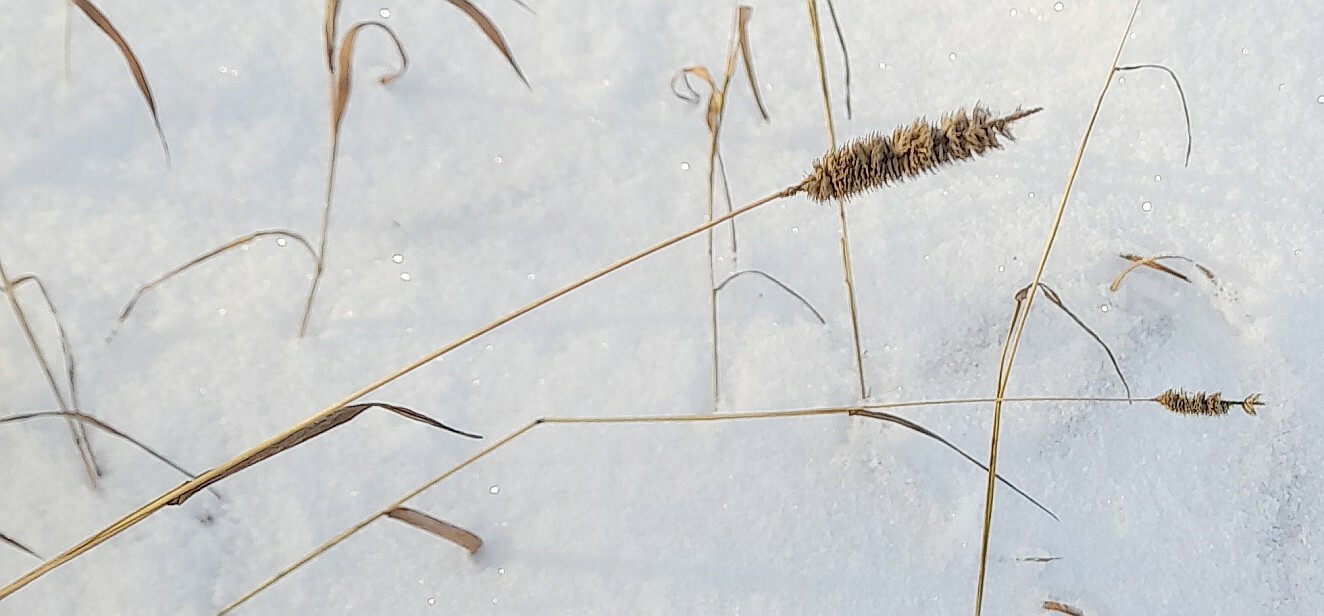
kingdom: Plantae
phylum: Tracheophyta
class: Liliopsida
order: Poales
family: Poaceae
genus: Phleum
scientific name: Phleum pratense
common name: Timothy grass
